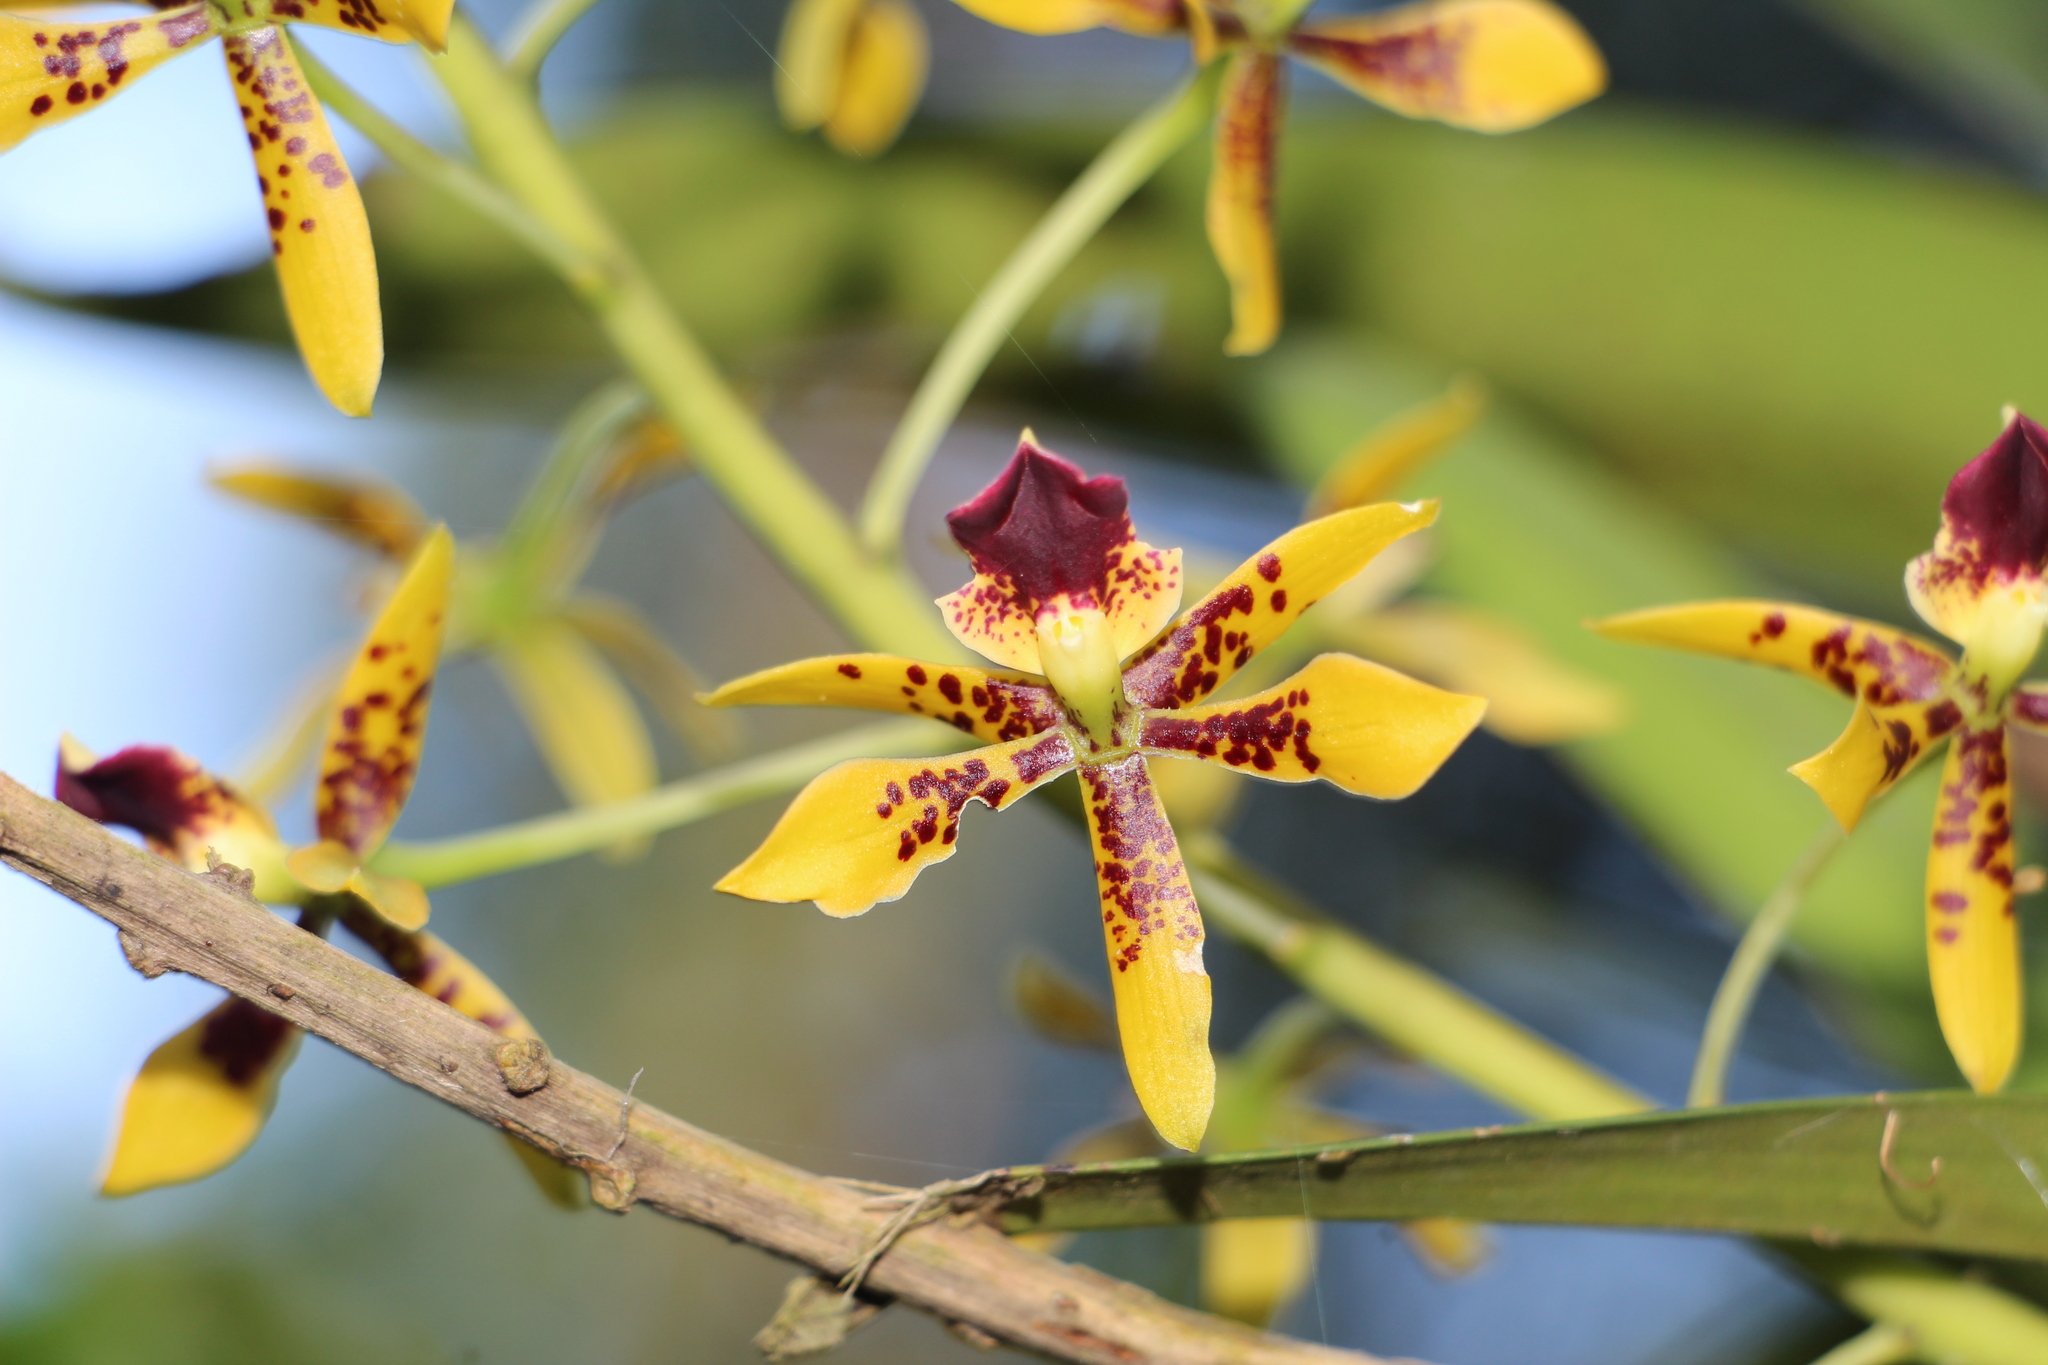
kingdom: Plantae
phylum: Tracheophyta
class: Liliopsida
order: Asparagales
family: Orchidaceae
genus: Prosthechea
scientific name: Prosthechea sceptra
